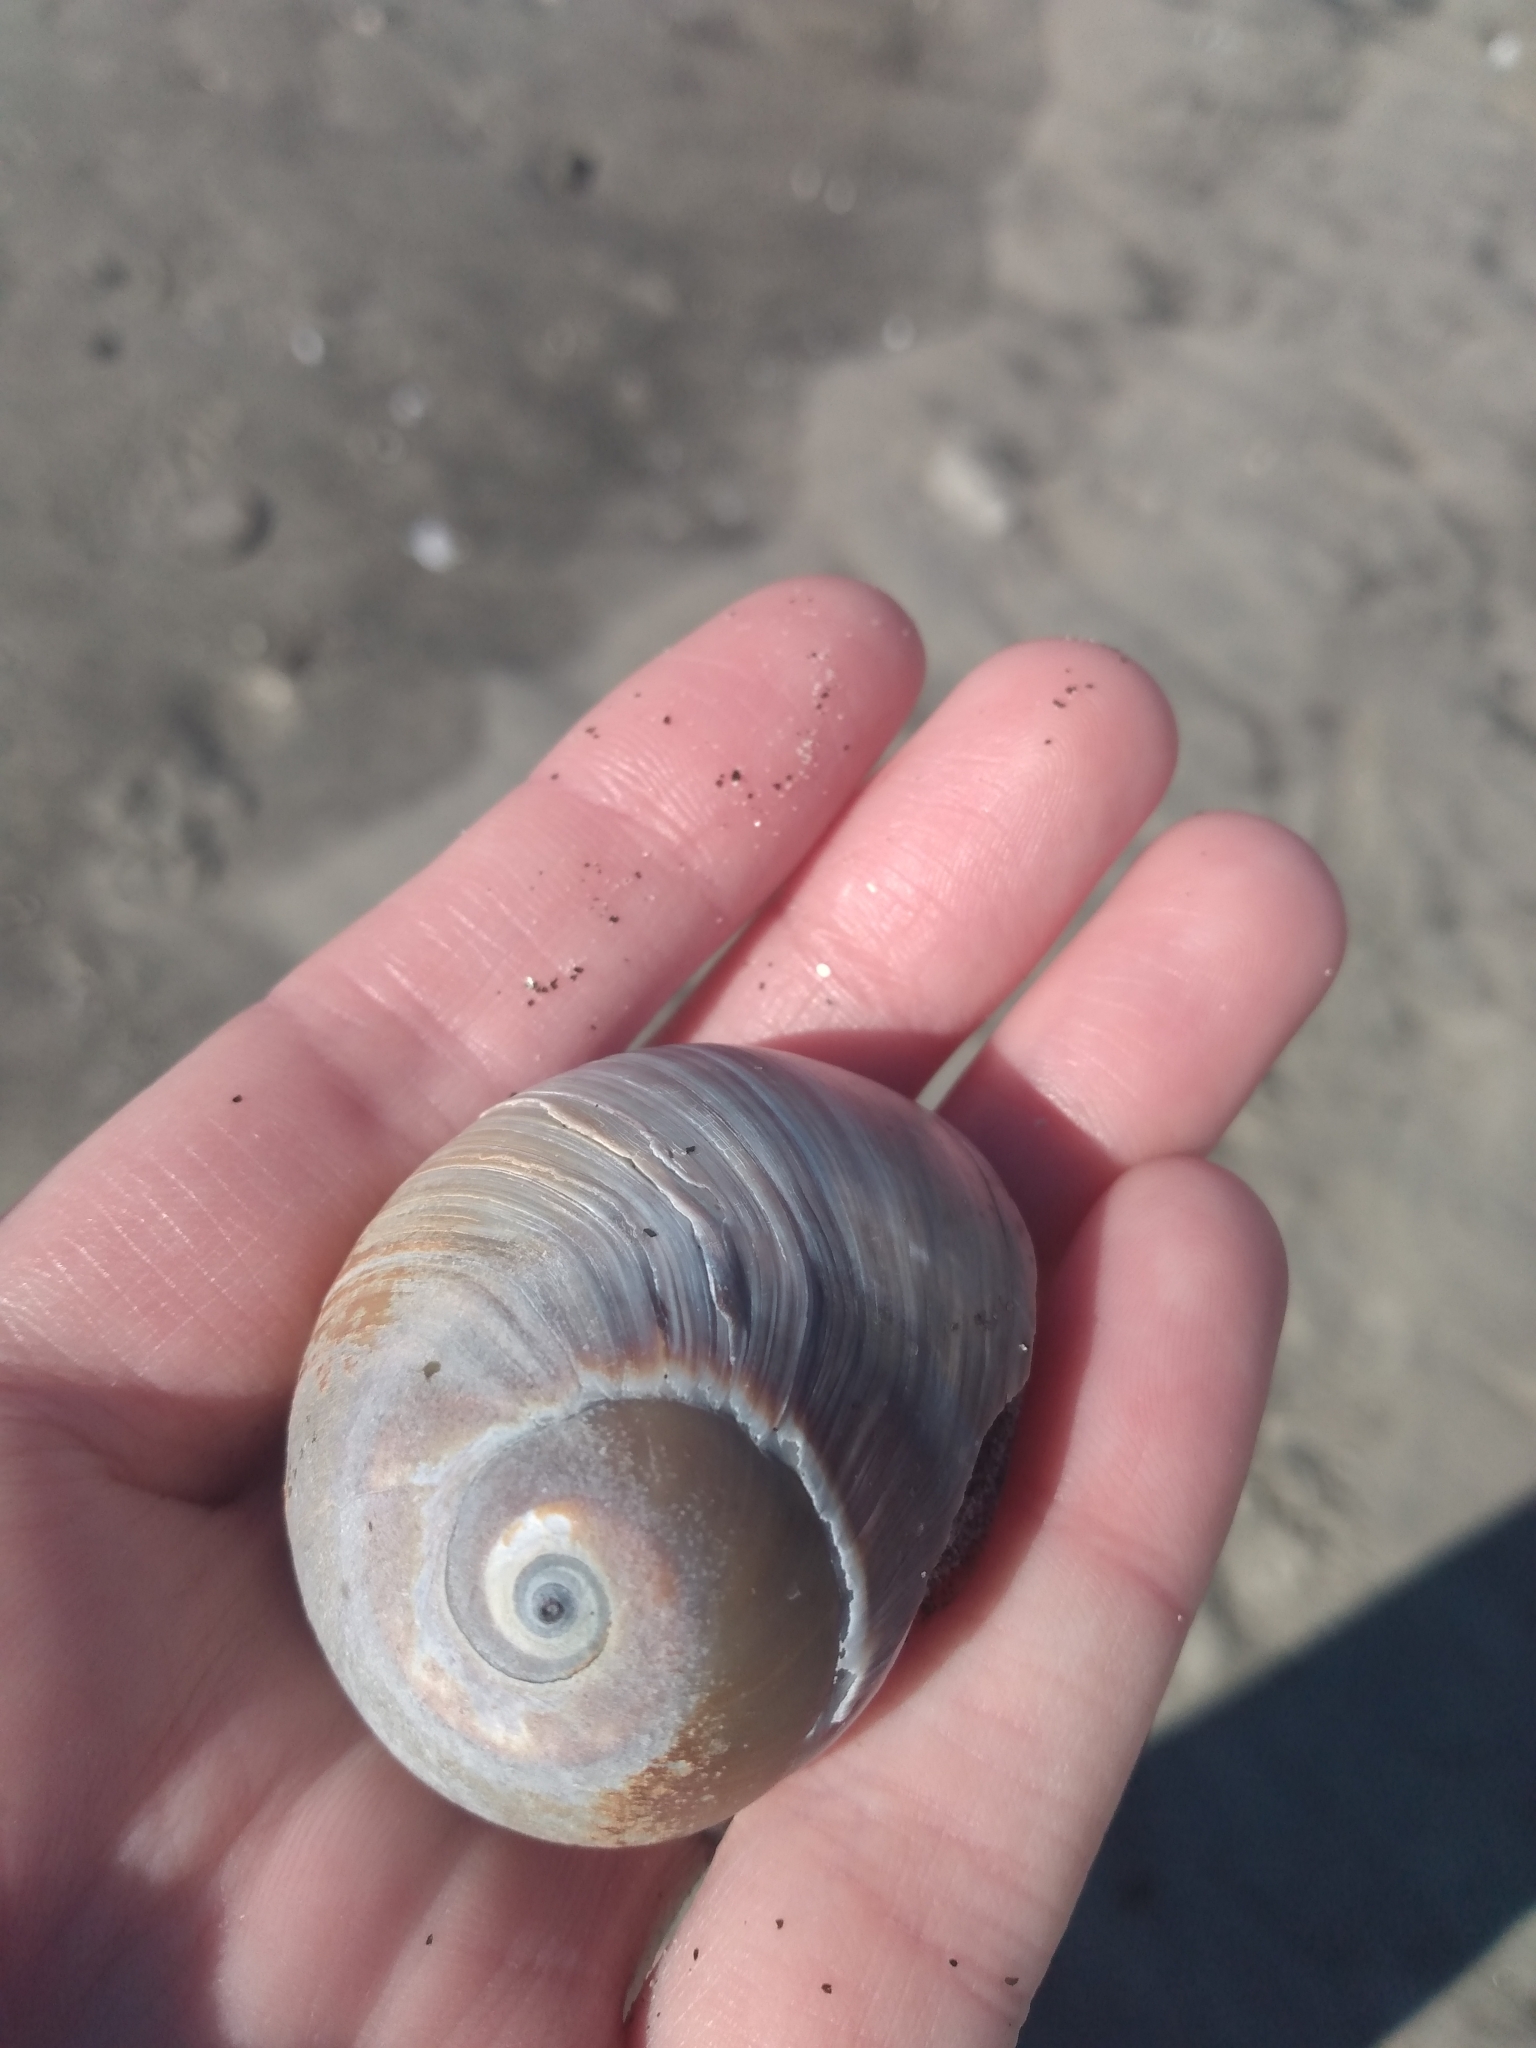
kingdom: Animalia
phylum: Mollusca
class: Gastropoda
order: Littorinimorpha
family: Naticidae
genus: Glossaulax
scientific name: Glossaulax reclusiana
